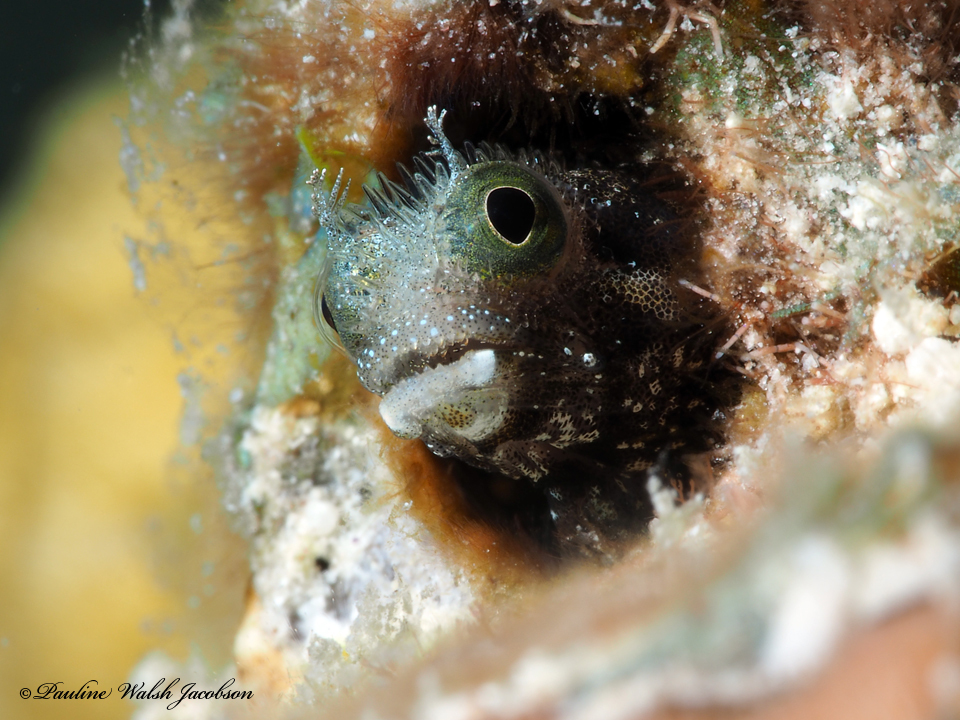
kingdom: Animalia
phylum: Chordata
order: Perciformes
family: Chaenopsidae
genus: Acanthemblemaria
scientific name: Acanthemblemaria spinosa
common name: Spinyhead blenny
